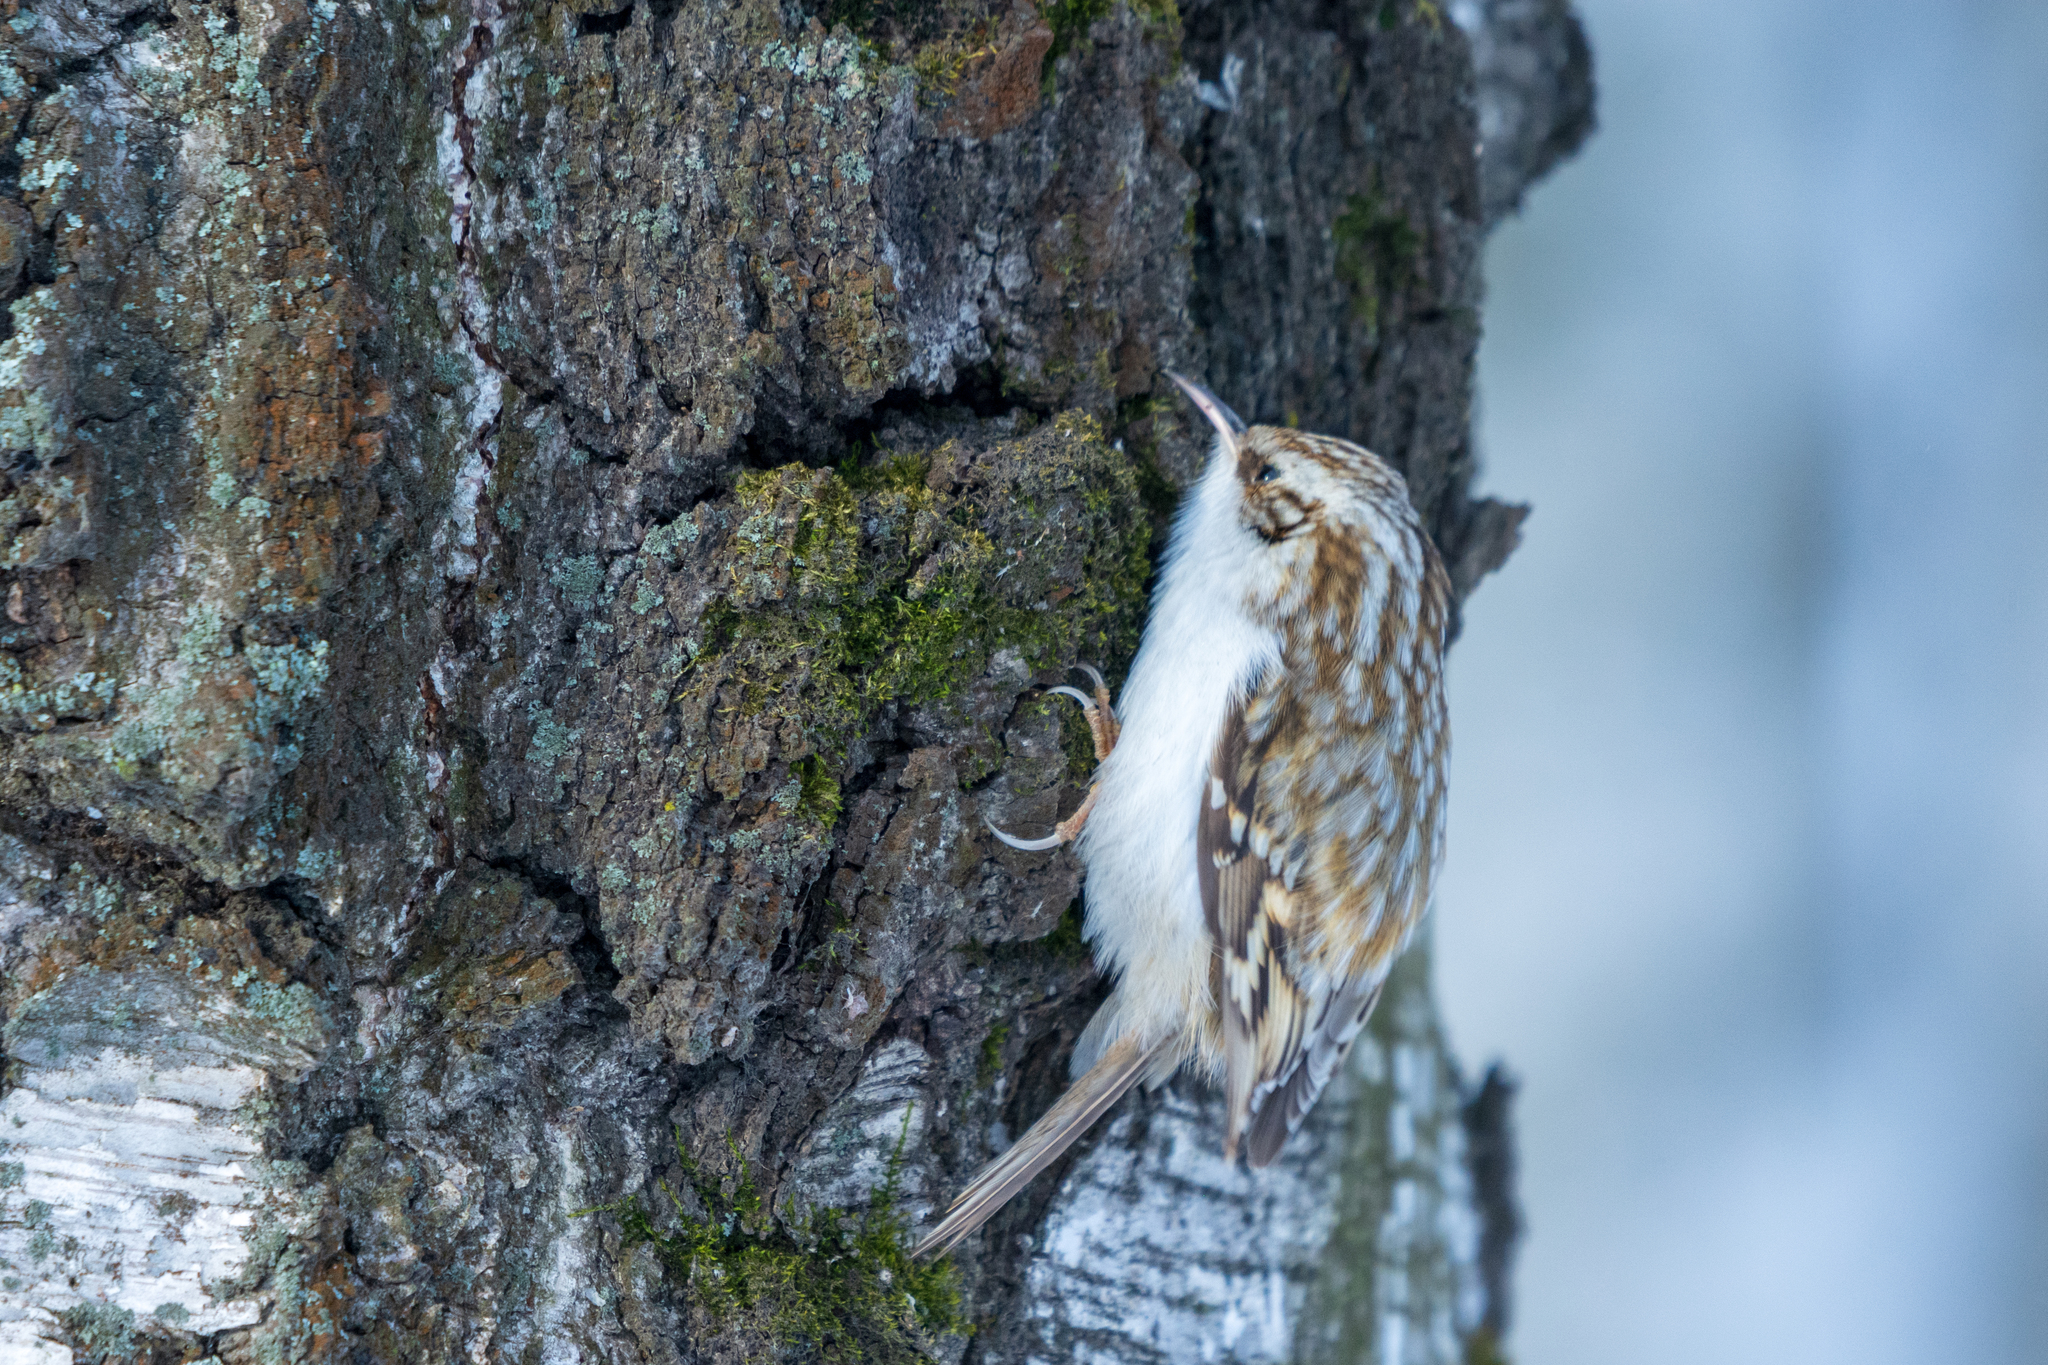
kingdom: Animalia
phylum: Chordata
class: Aves
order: Passeriformes
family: Certhiidae
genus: Certhia
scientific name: Certhia familiaris
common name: Eurasian treecreeper
